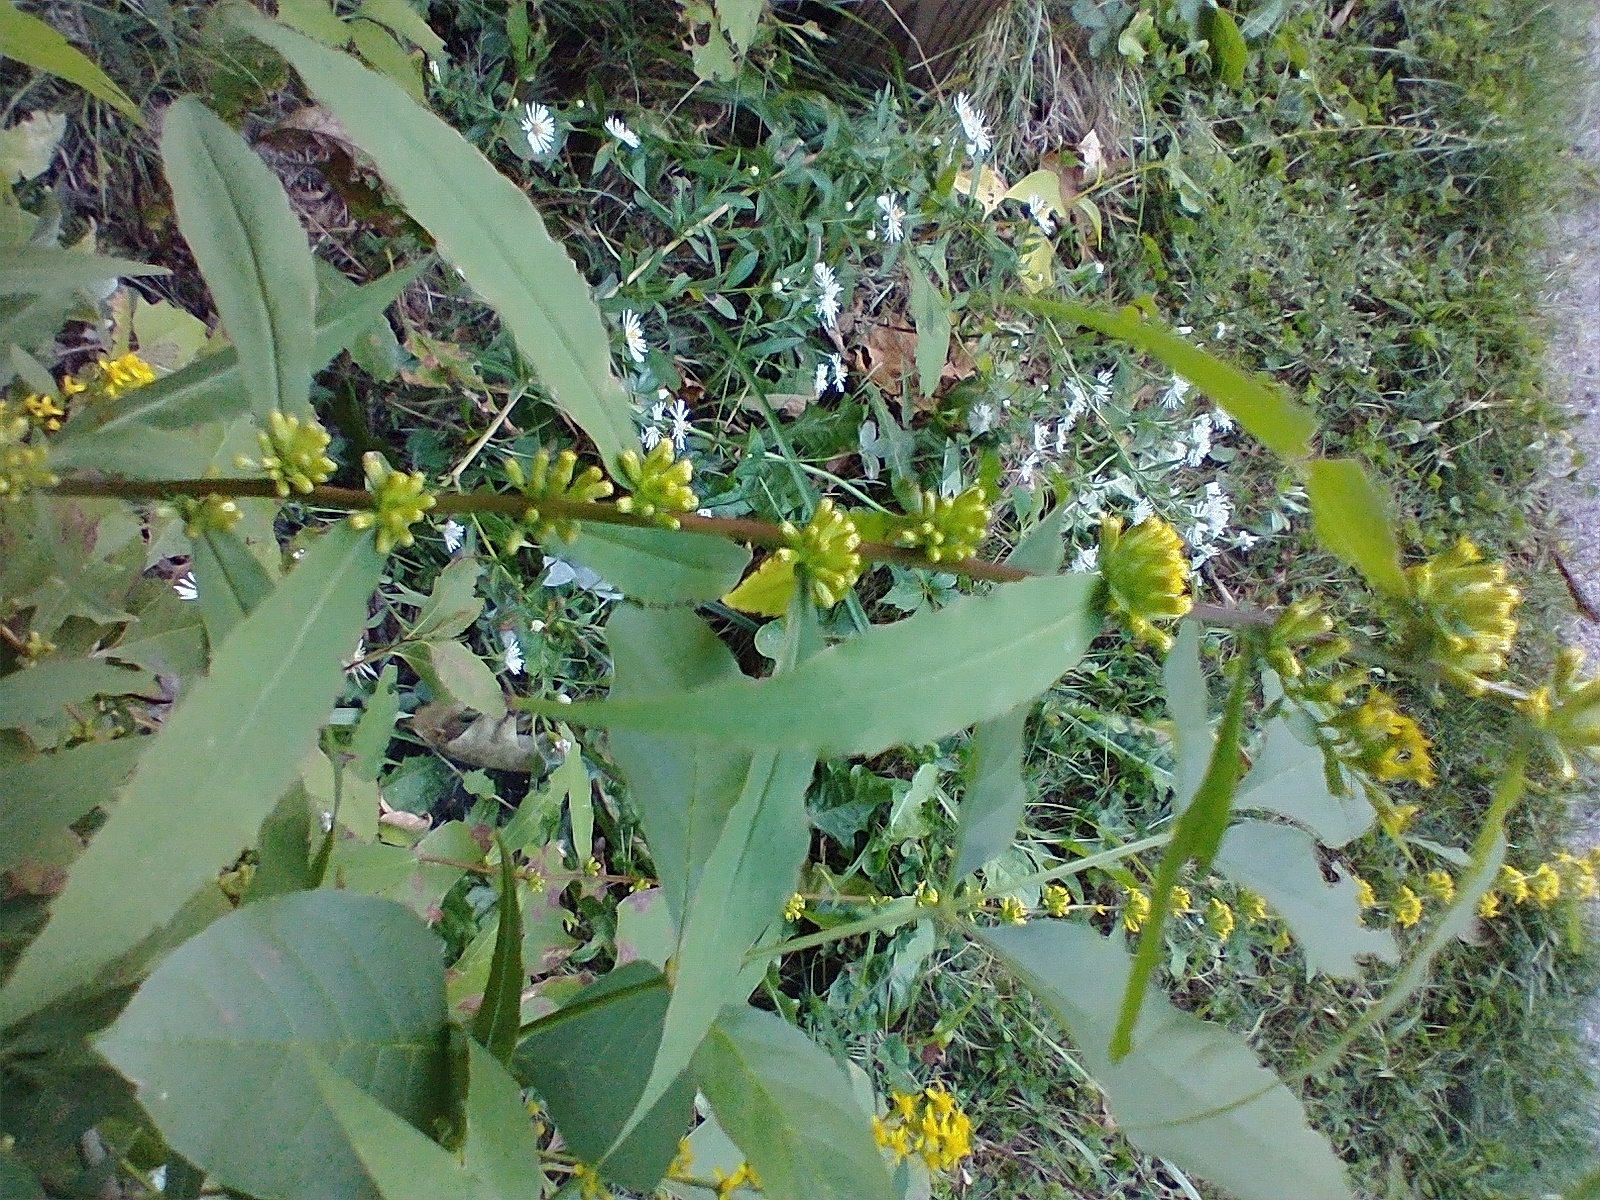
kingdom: Plantae
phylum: Tracheophyta
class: Magnoliopsida
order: Asterales
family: Asteraceae
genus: Solidago
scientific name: Solidago caesia
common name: Woodland goldenrod
